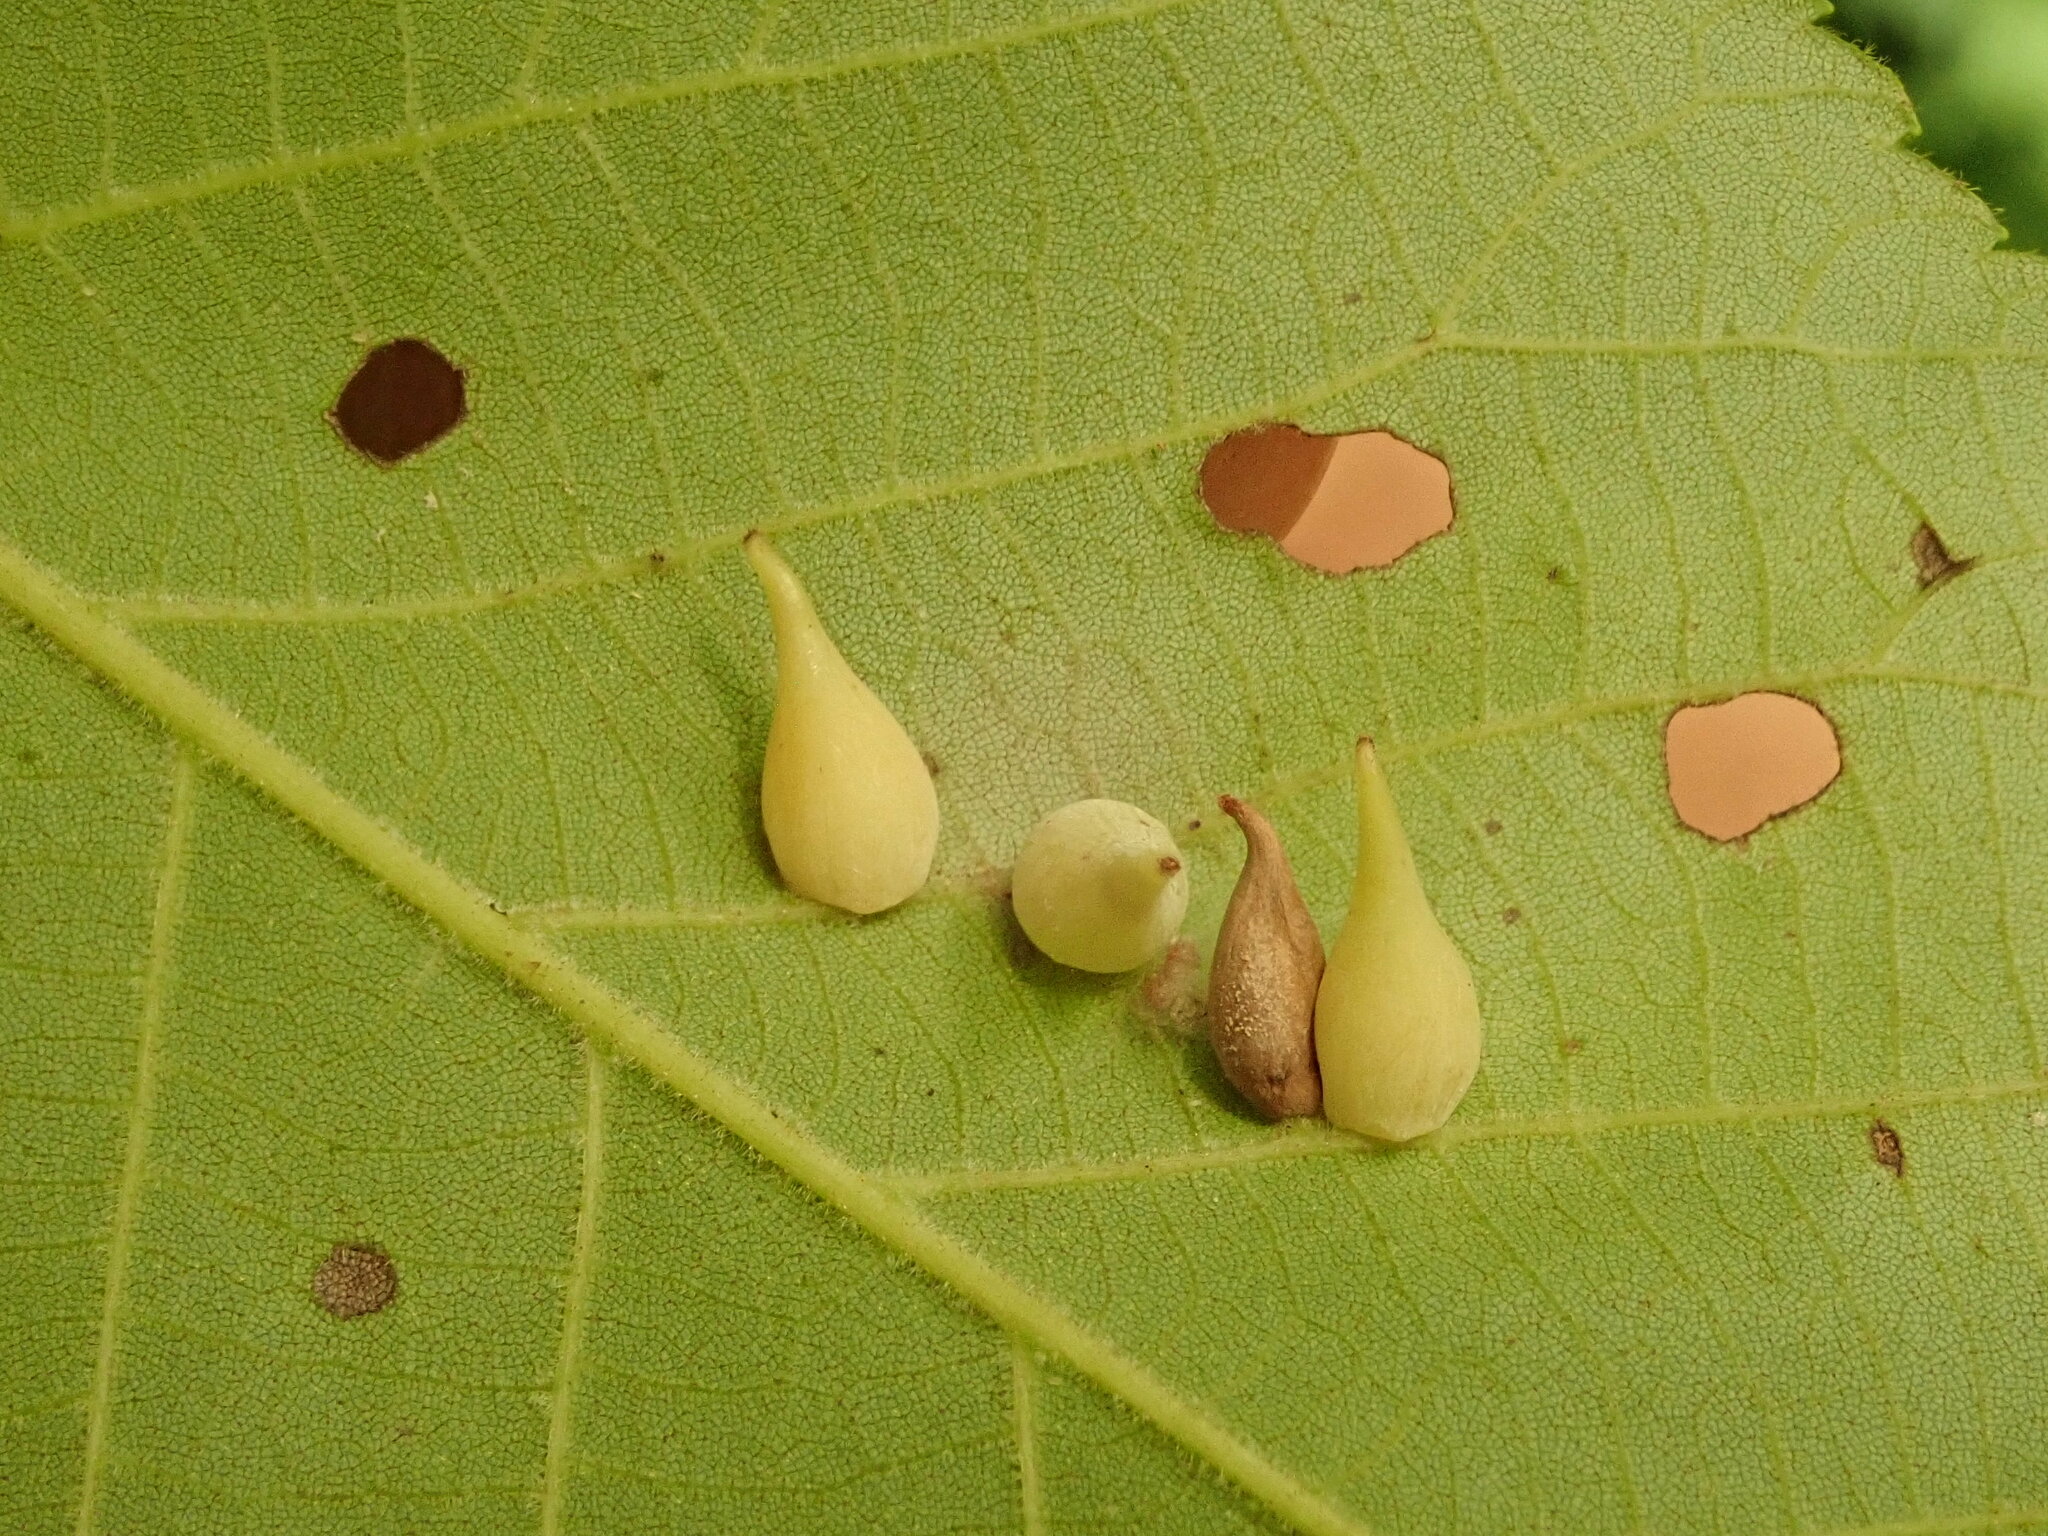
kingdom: Animalia
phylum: Arthropoda
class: Insecta
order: Diptera
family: Cecidomyiidae
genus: Caryomyia
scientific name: Caryomyia caryaecola
